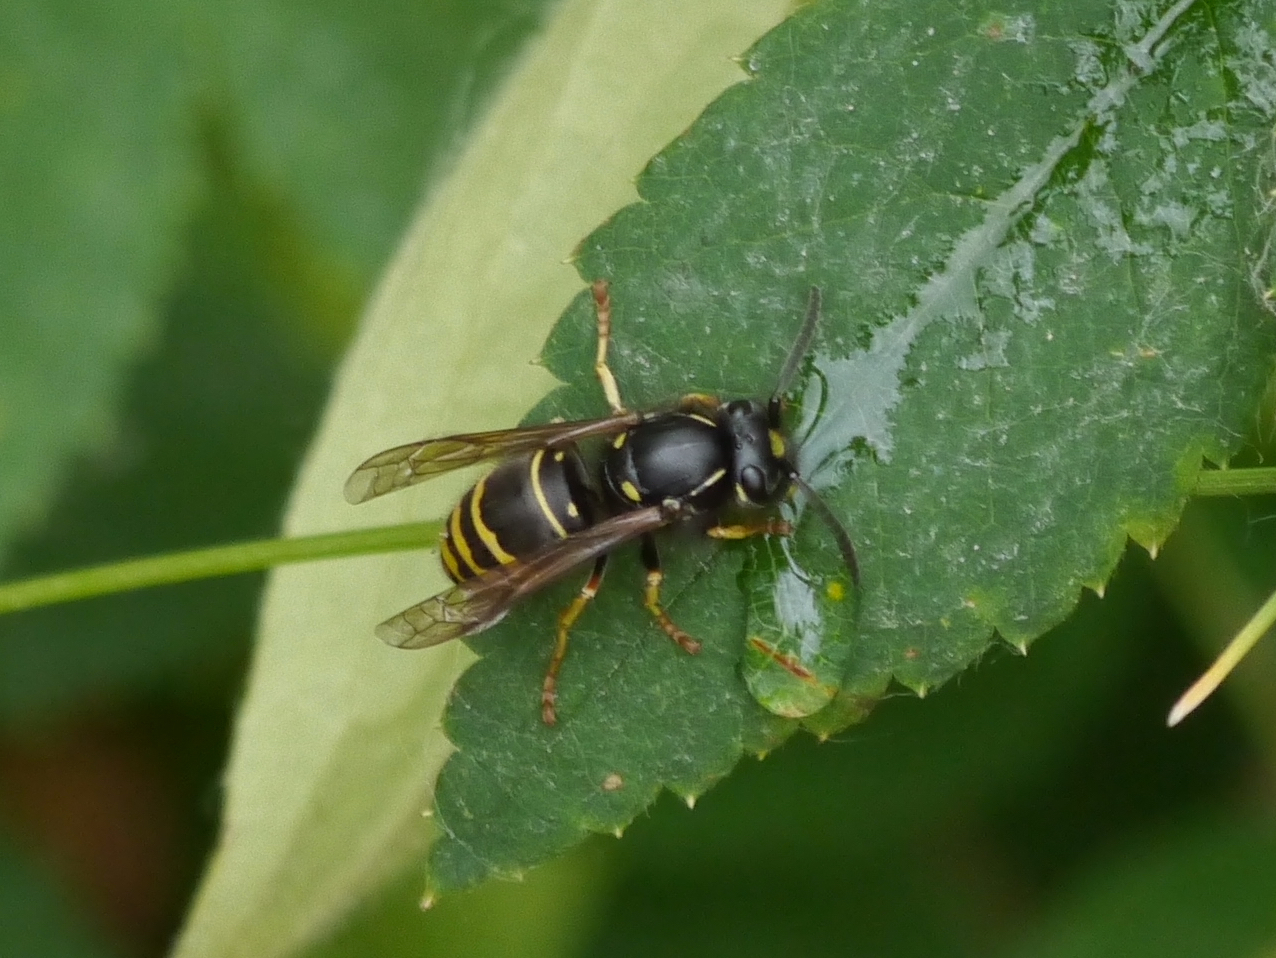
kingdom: Animalia
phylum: Arthropoda
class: Insecta
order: Hymenoptera
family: Vespidae
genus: Vespula
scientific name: Vespula acadica
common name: Forest yellowjacket
